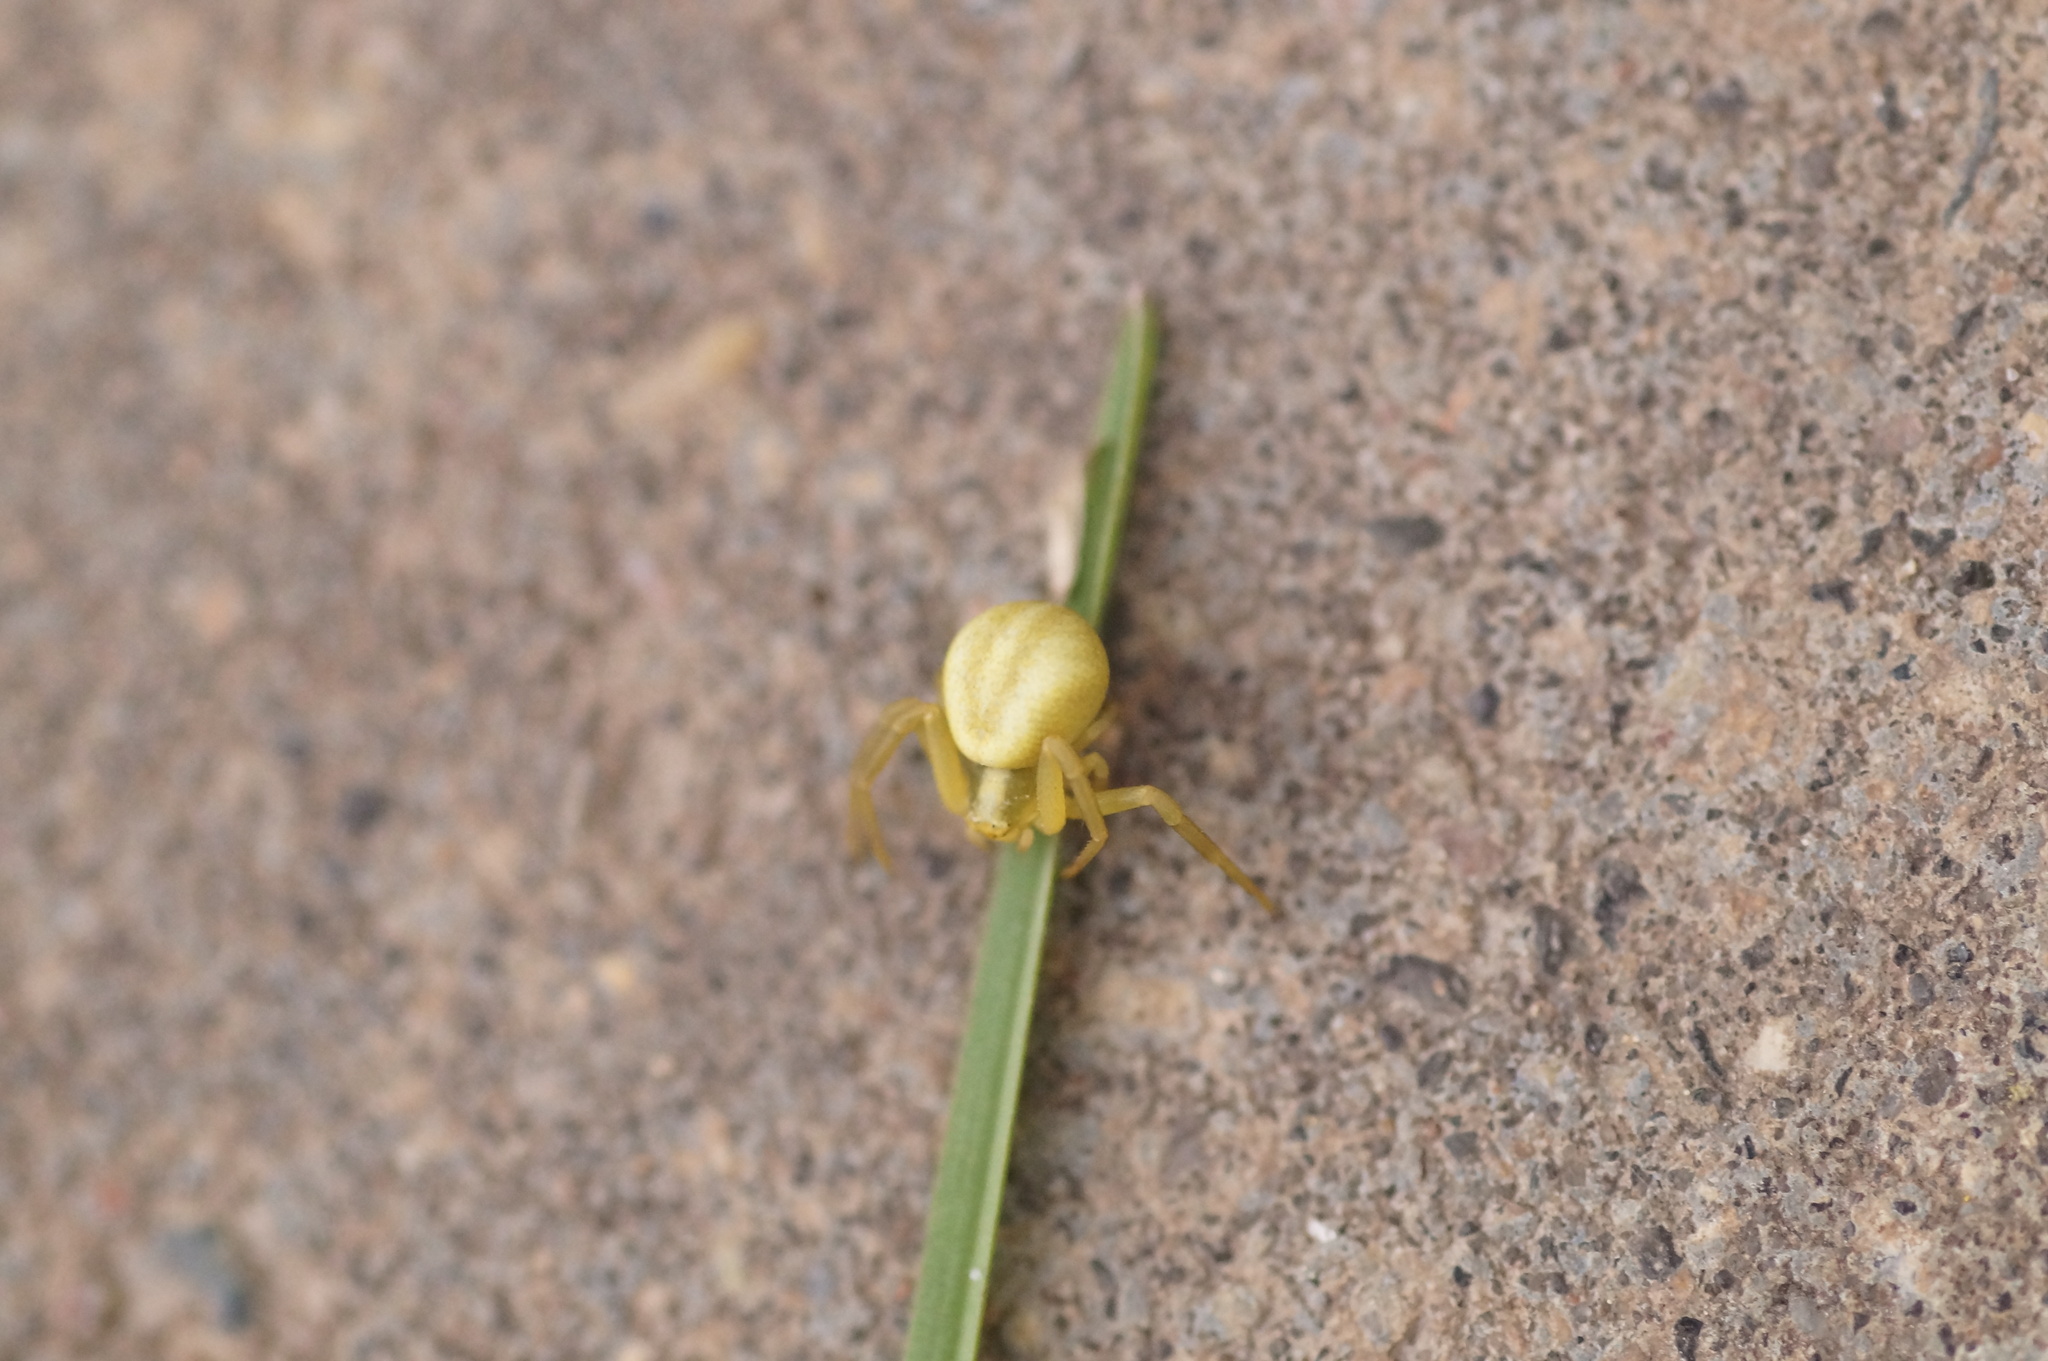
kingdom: Animalia
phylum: Arthropoda
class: Arachnida
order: Araneae
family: Thomisidae
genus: Misumena
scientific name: Misumena vatia
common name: Goldenrod crab spider
